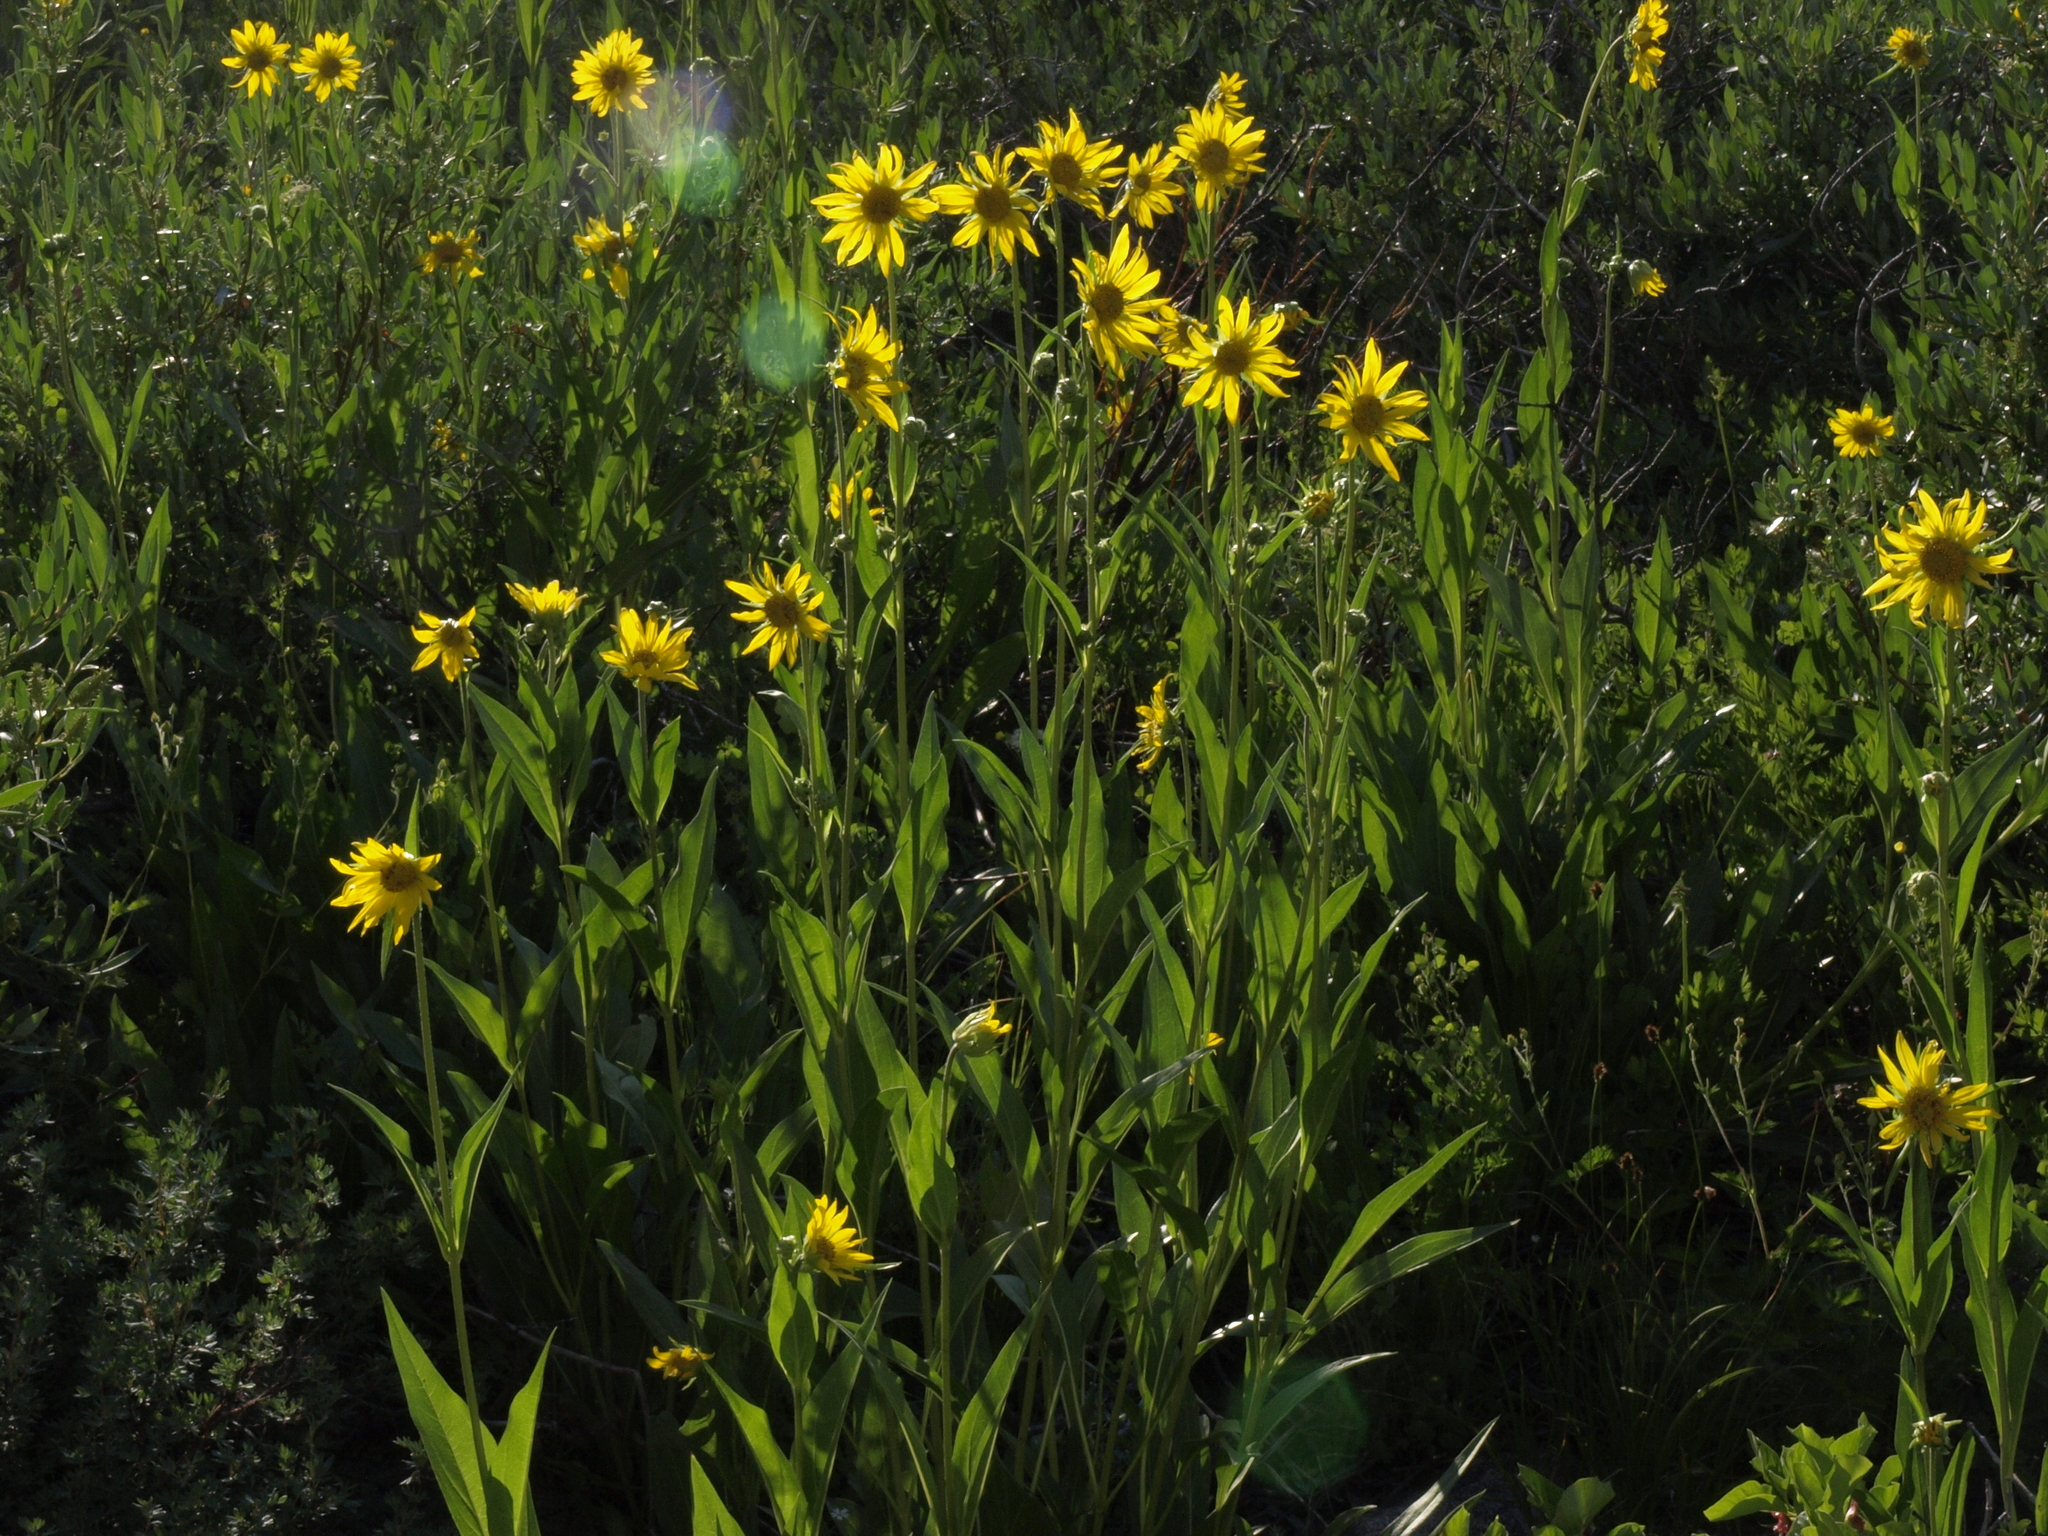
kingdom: Plantae
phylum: Tracheophyta
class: Magnoliopsida
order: Asterales
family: Asteraceae
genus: Helianthella
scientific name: Helianthella quinquenervis
